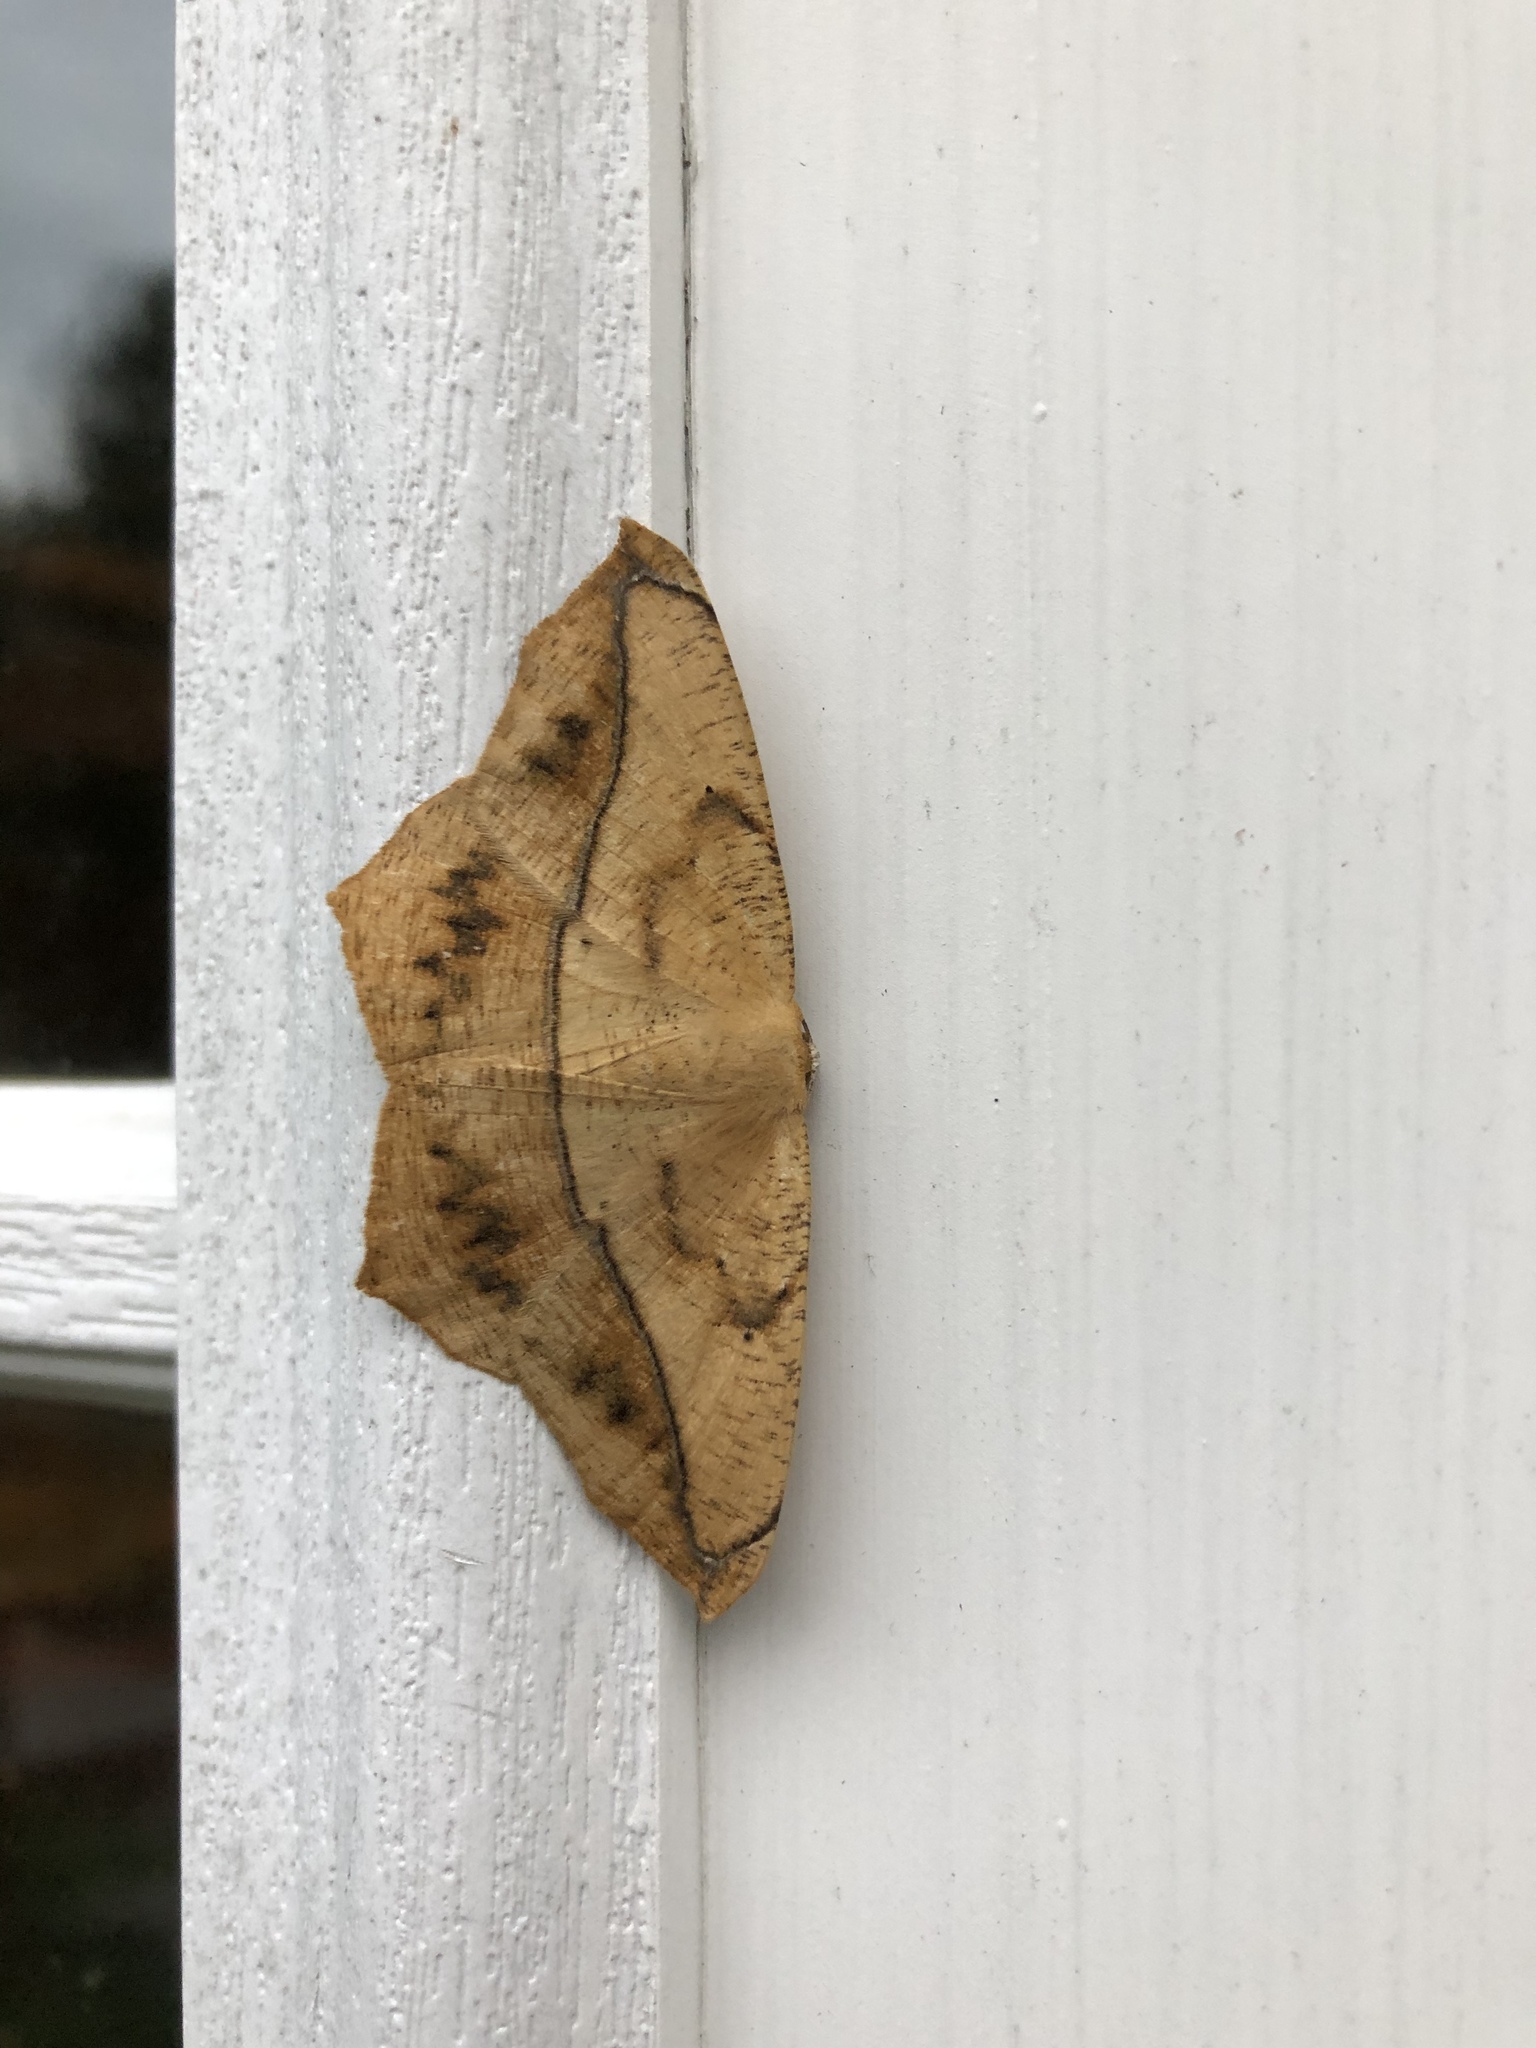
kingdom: Animalia
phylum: Arthropoda
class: Insecta
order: Lepidoptera
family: Geometridae
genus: Prochoerodes
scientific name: Prochoerodes lineola
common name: Large maple spanworm
